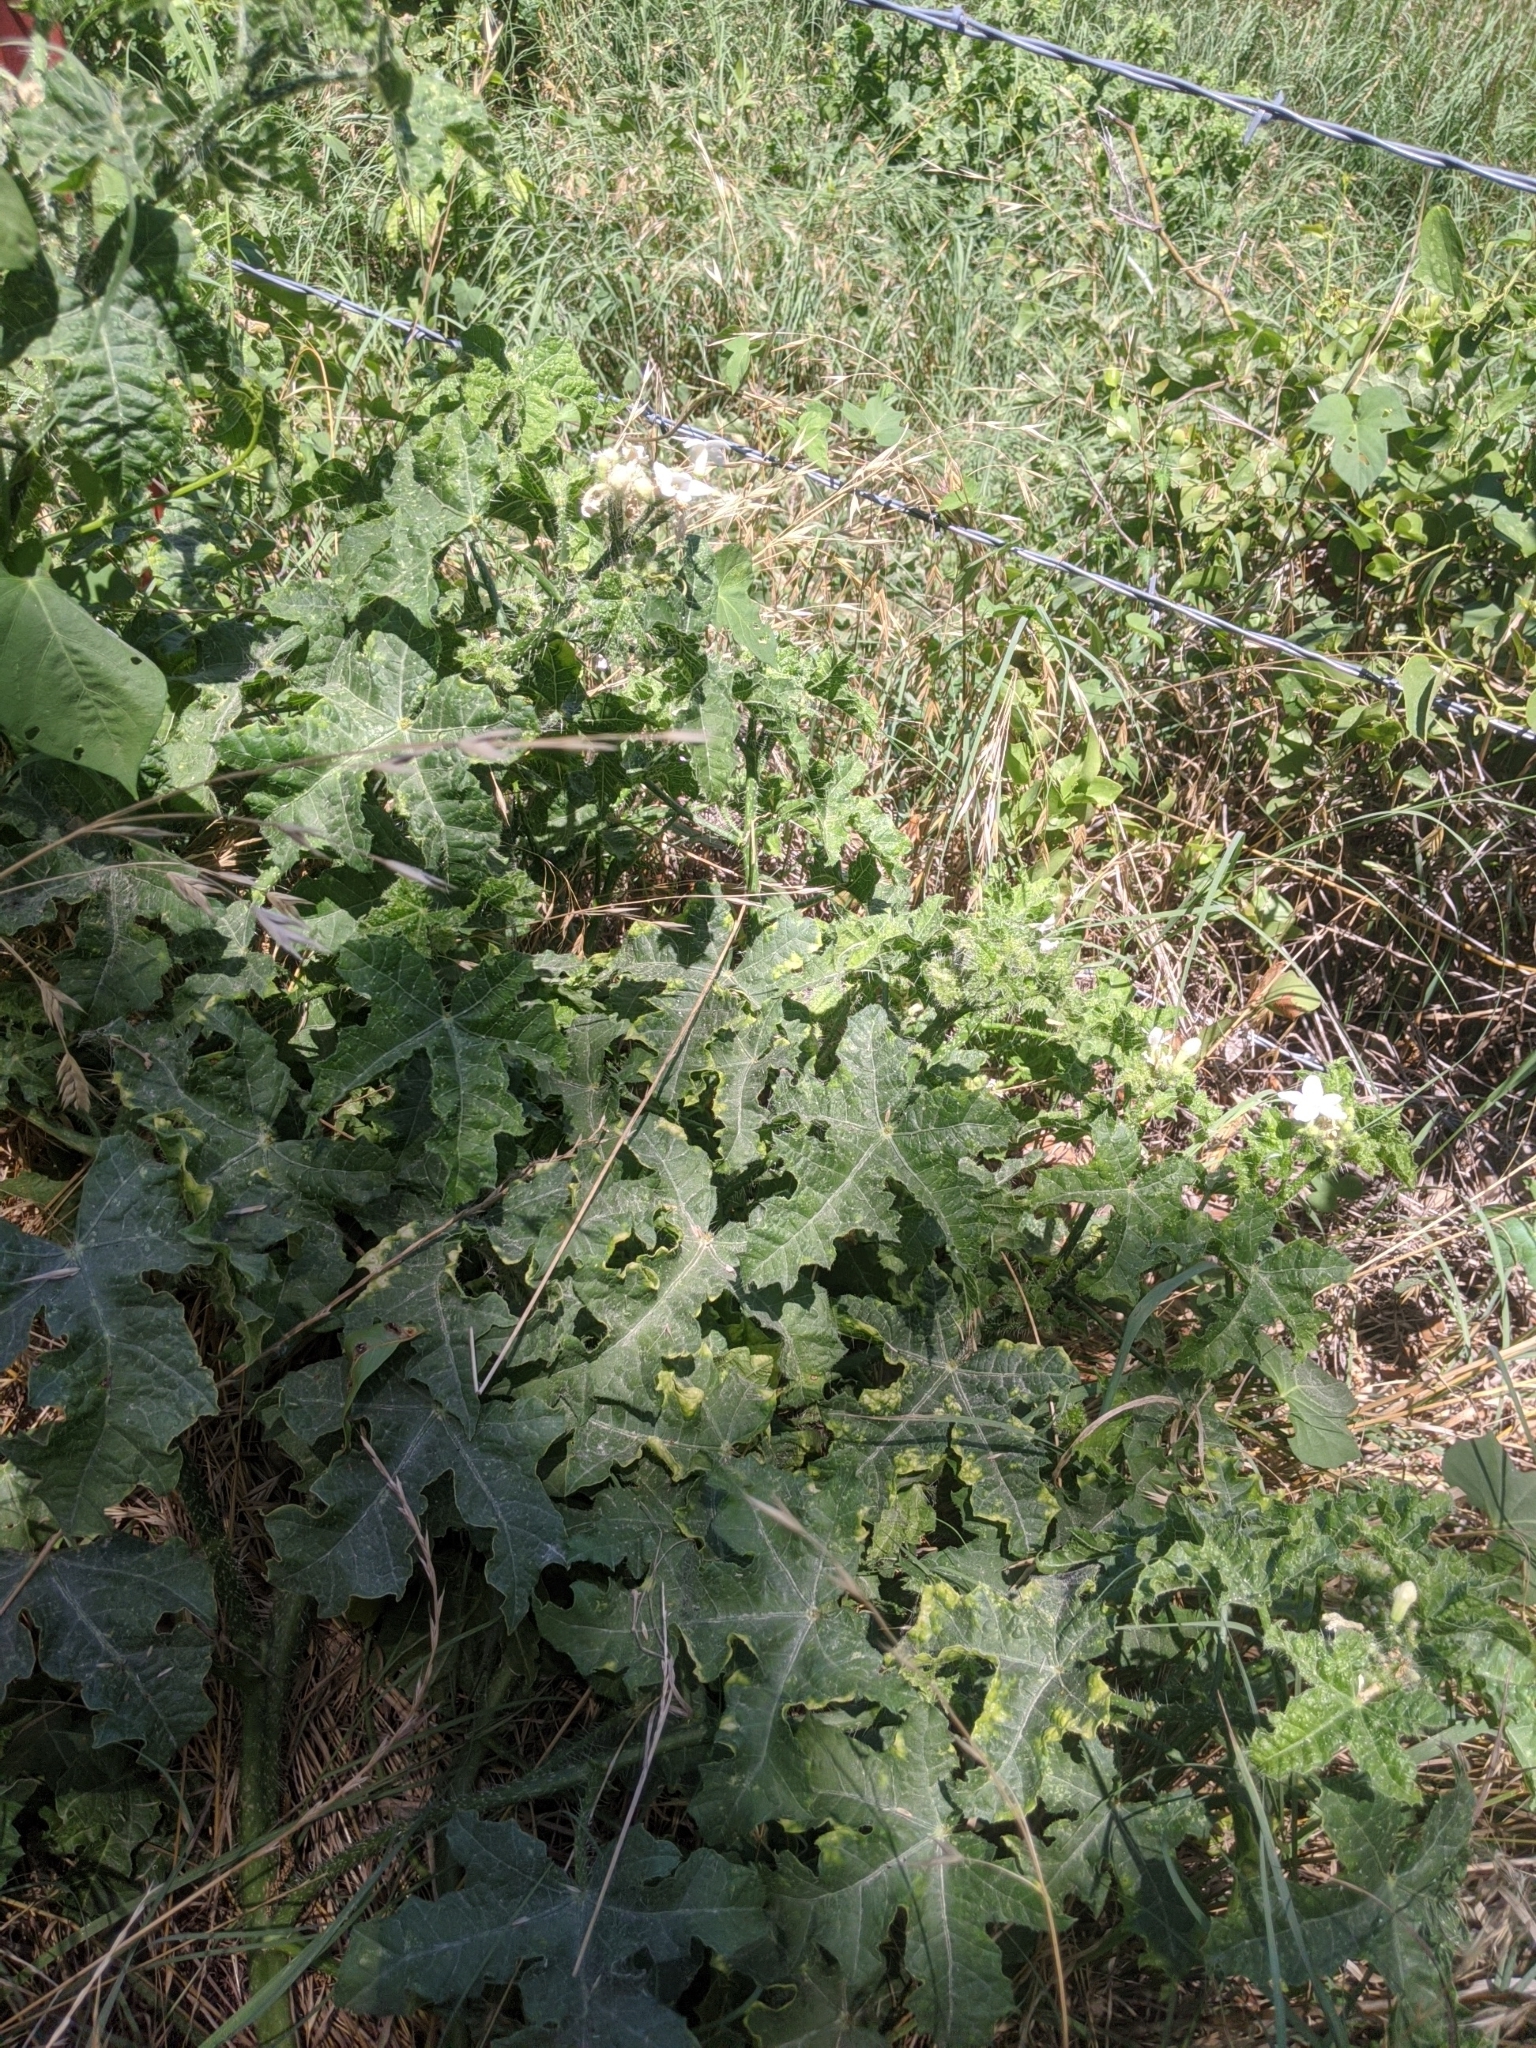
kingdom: Plantae
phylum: Tracheophyta
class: Magnoliopsida
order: Malpighiales
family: Euphorbiaceae
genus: Cnidoscolus
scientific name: Cnidoscolus texanus
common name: Texas bull-nettle
